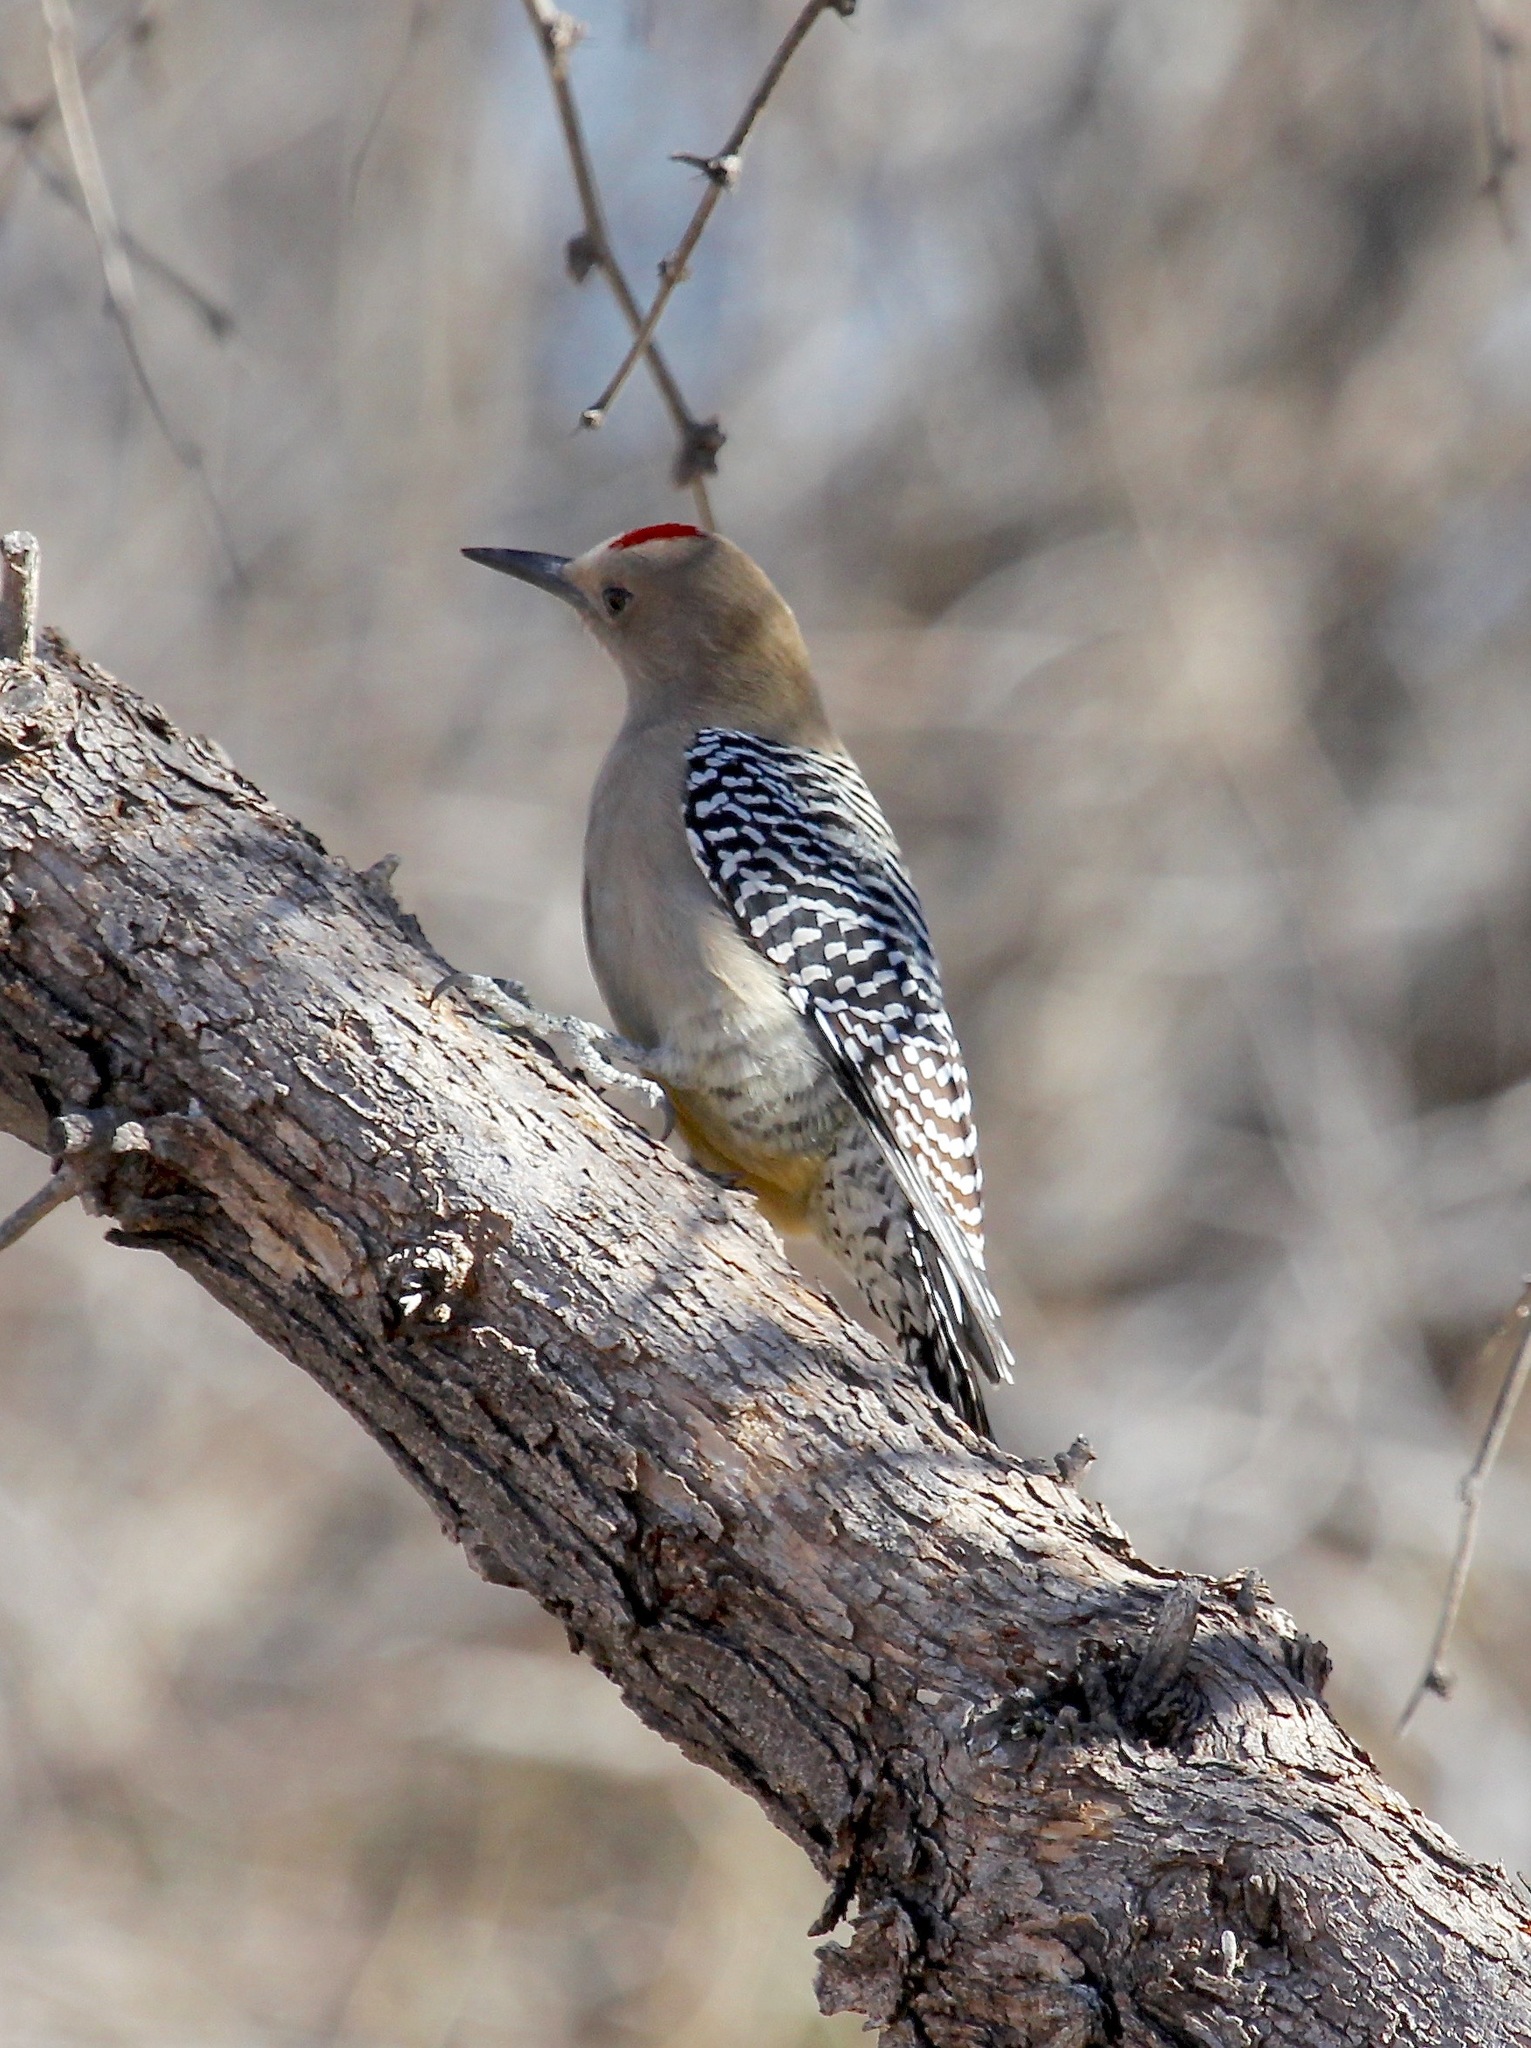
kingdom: Animalia
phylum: Chordata
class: Aves
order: Piciformes
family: Picidae
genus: Melanerpes
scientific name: Melanerpes uropygialis
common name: Gila woodpecker
